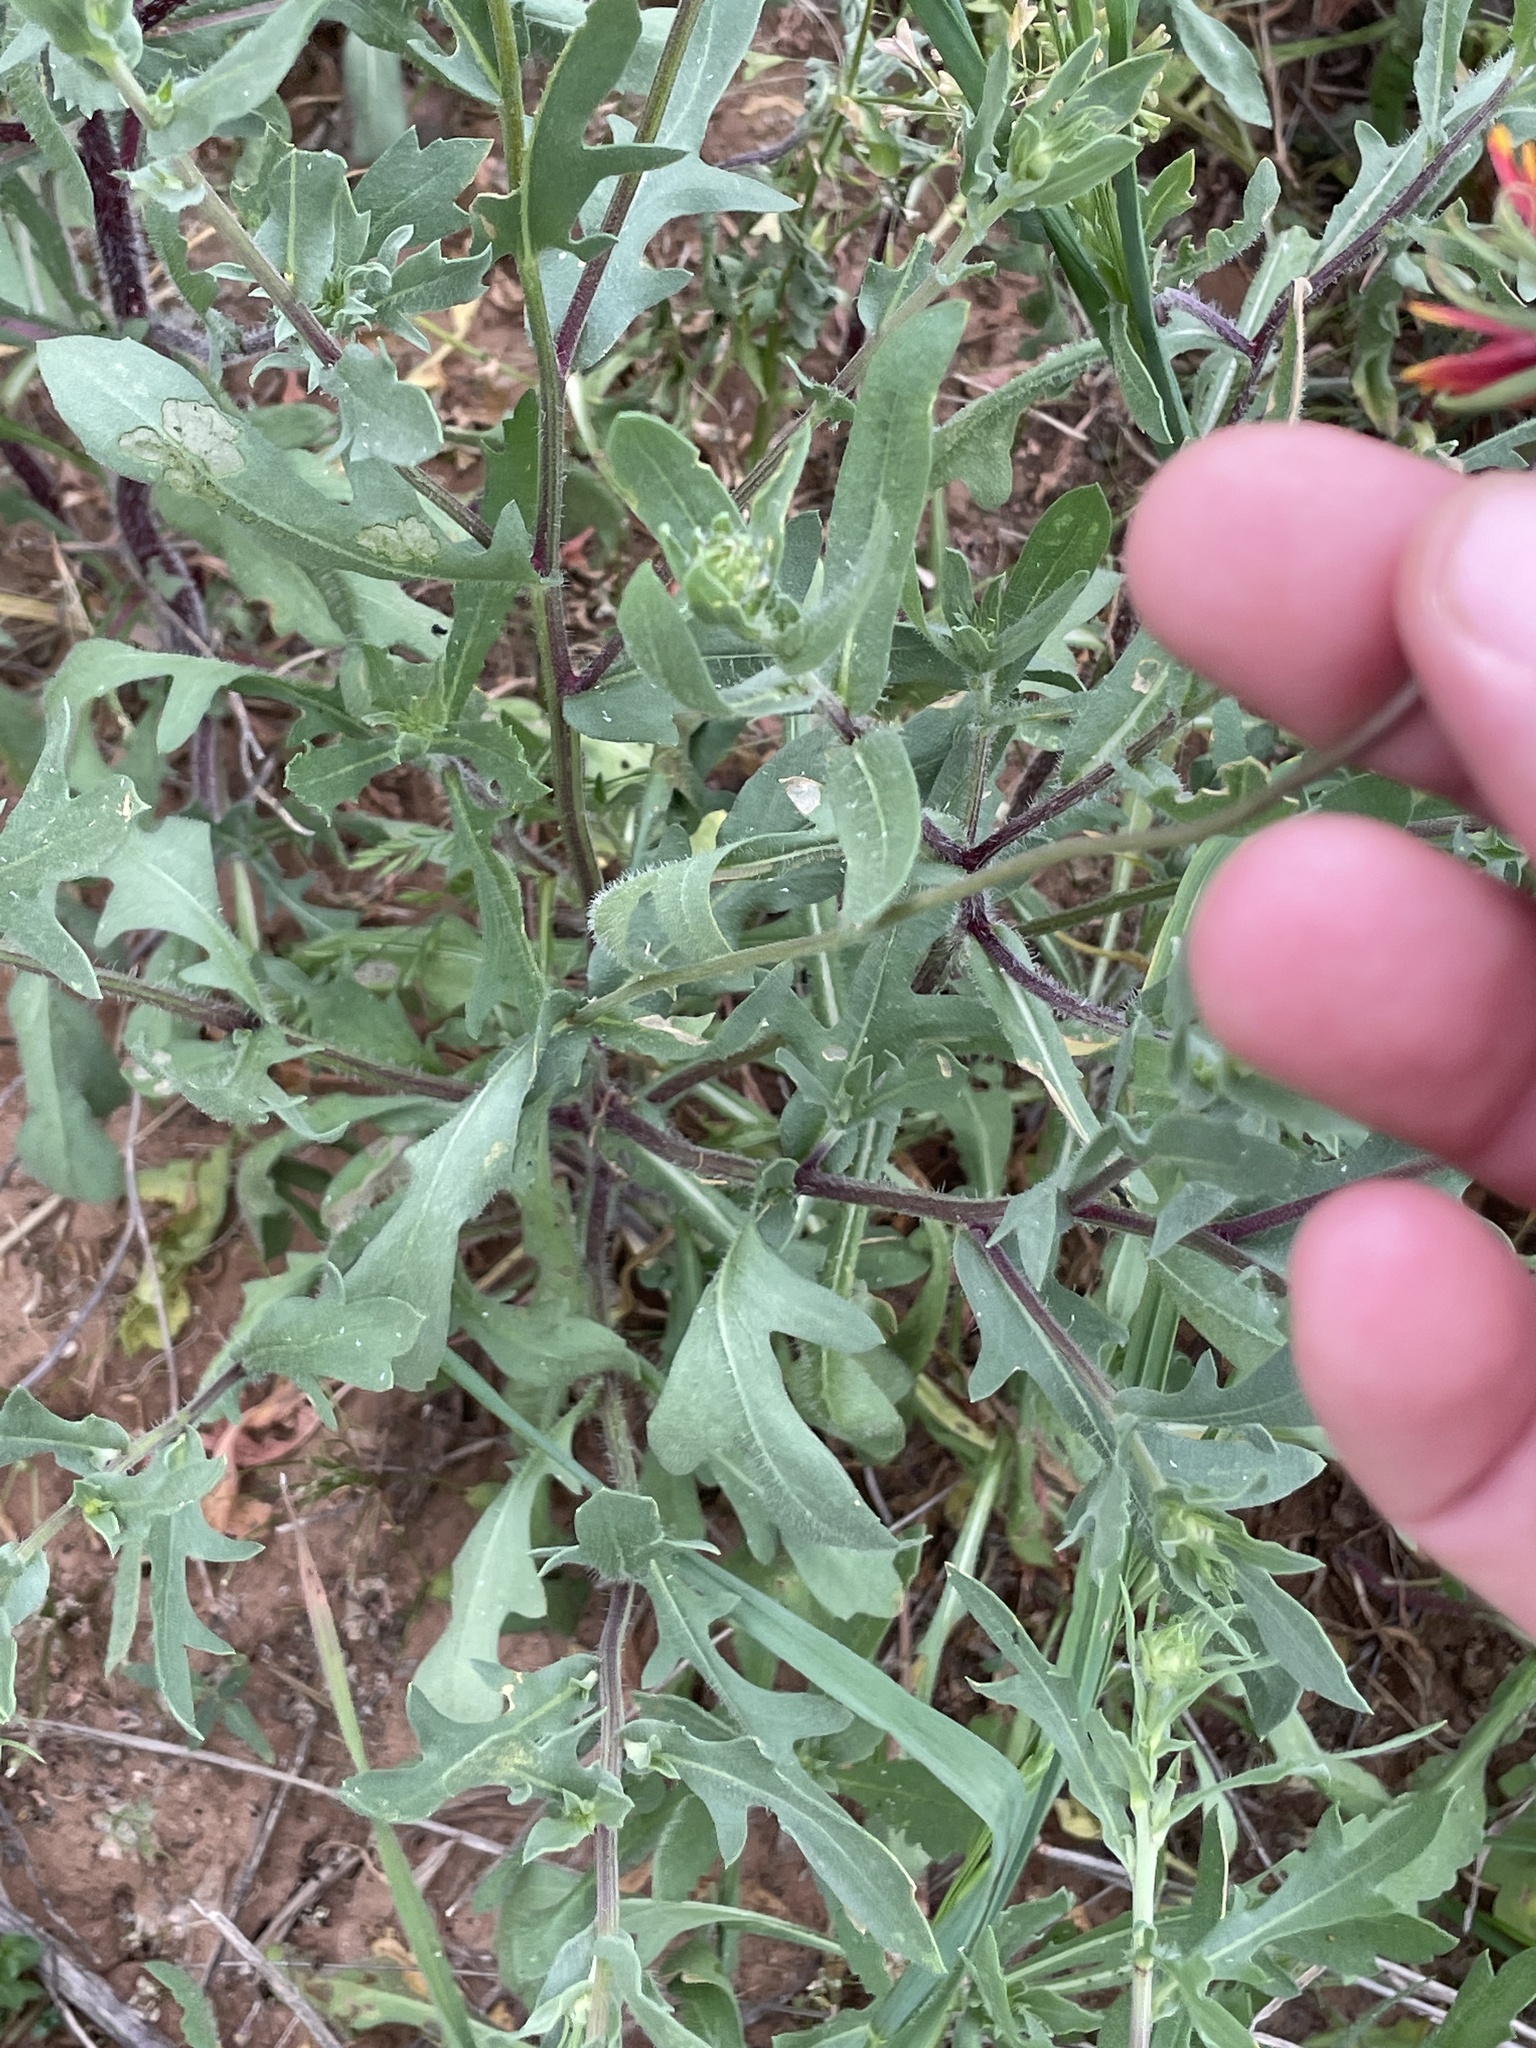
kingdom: Plantae
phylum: Tracheophyta
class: Magnoliopsida
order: Asterales
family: Asteraceae
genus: Gaillardia
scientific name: Gaillardia pulchella
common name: Firewheel
